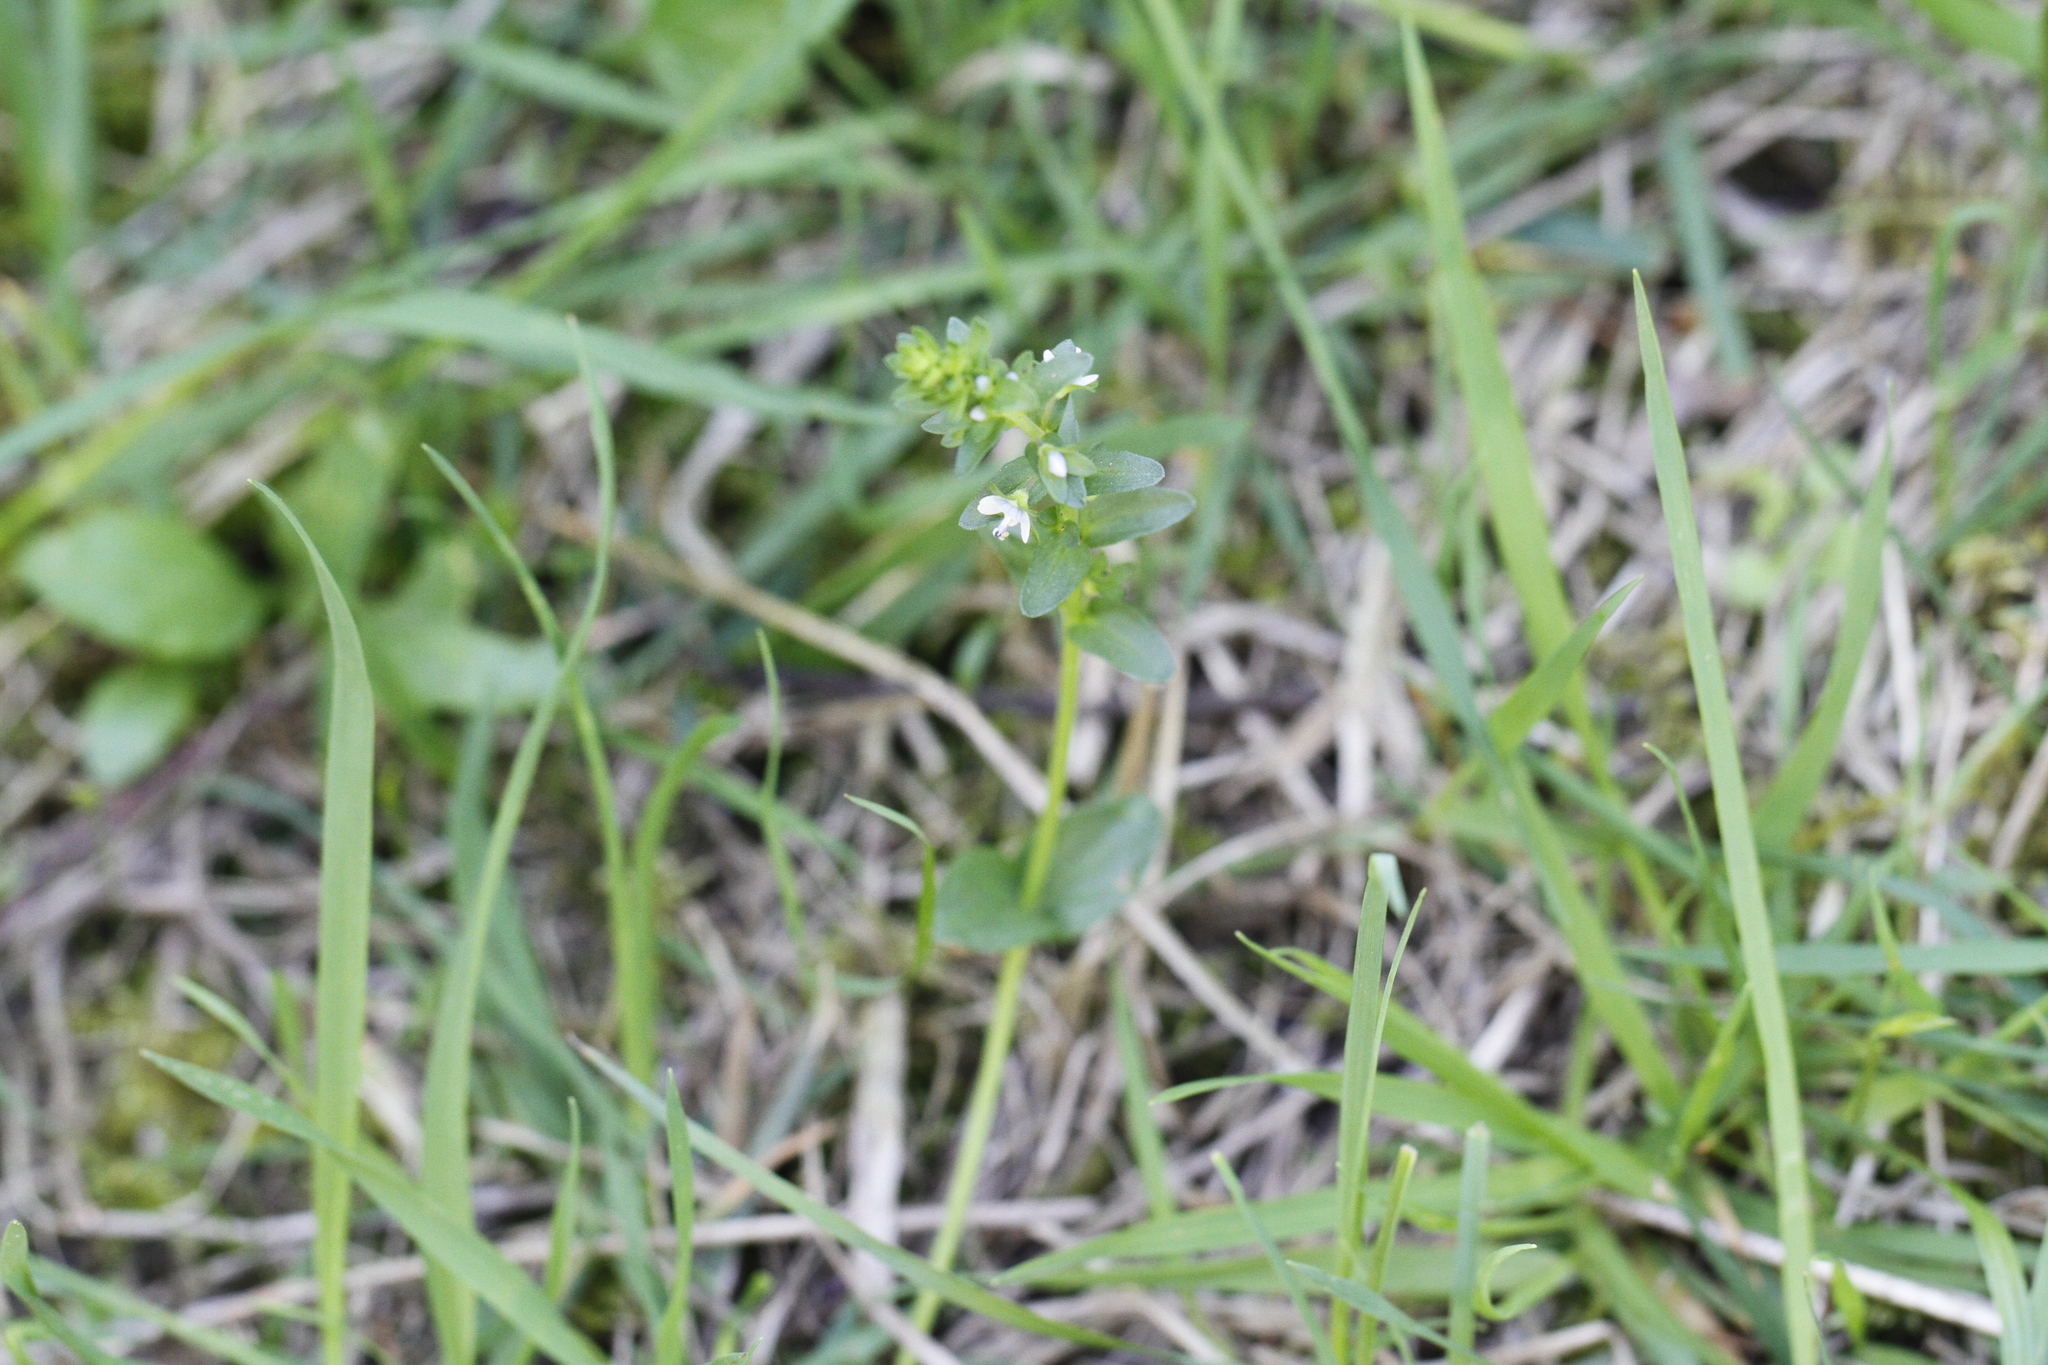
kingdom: Plantae
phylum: Tracheophyta
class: Magnoliopsida
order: Lamiales
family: Plantaginaceae
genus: Veronica
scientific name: Veronica serpyllifolia
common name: Thyme-leaved speedwell
